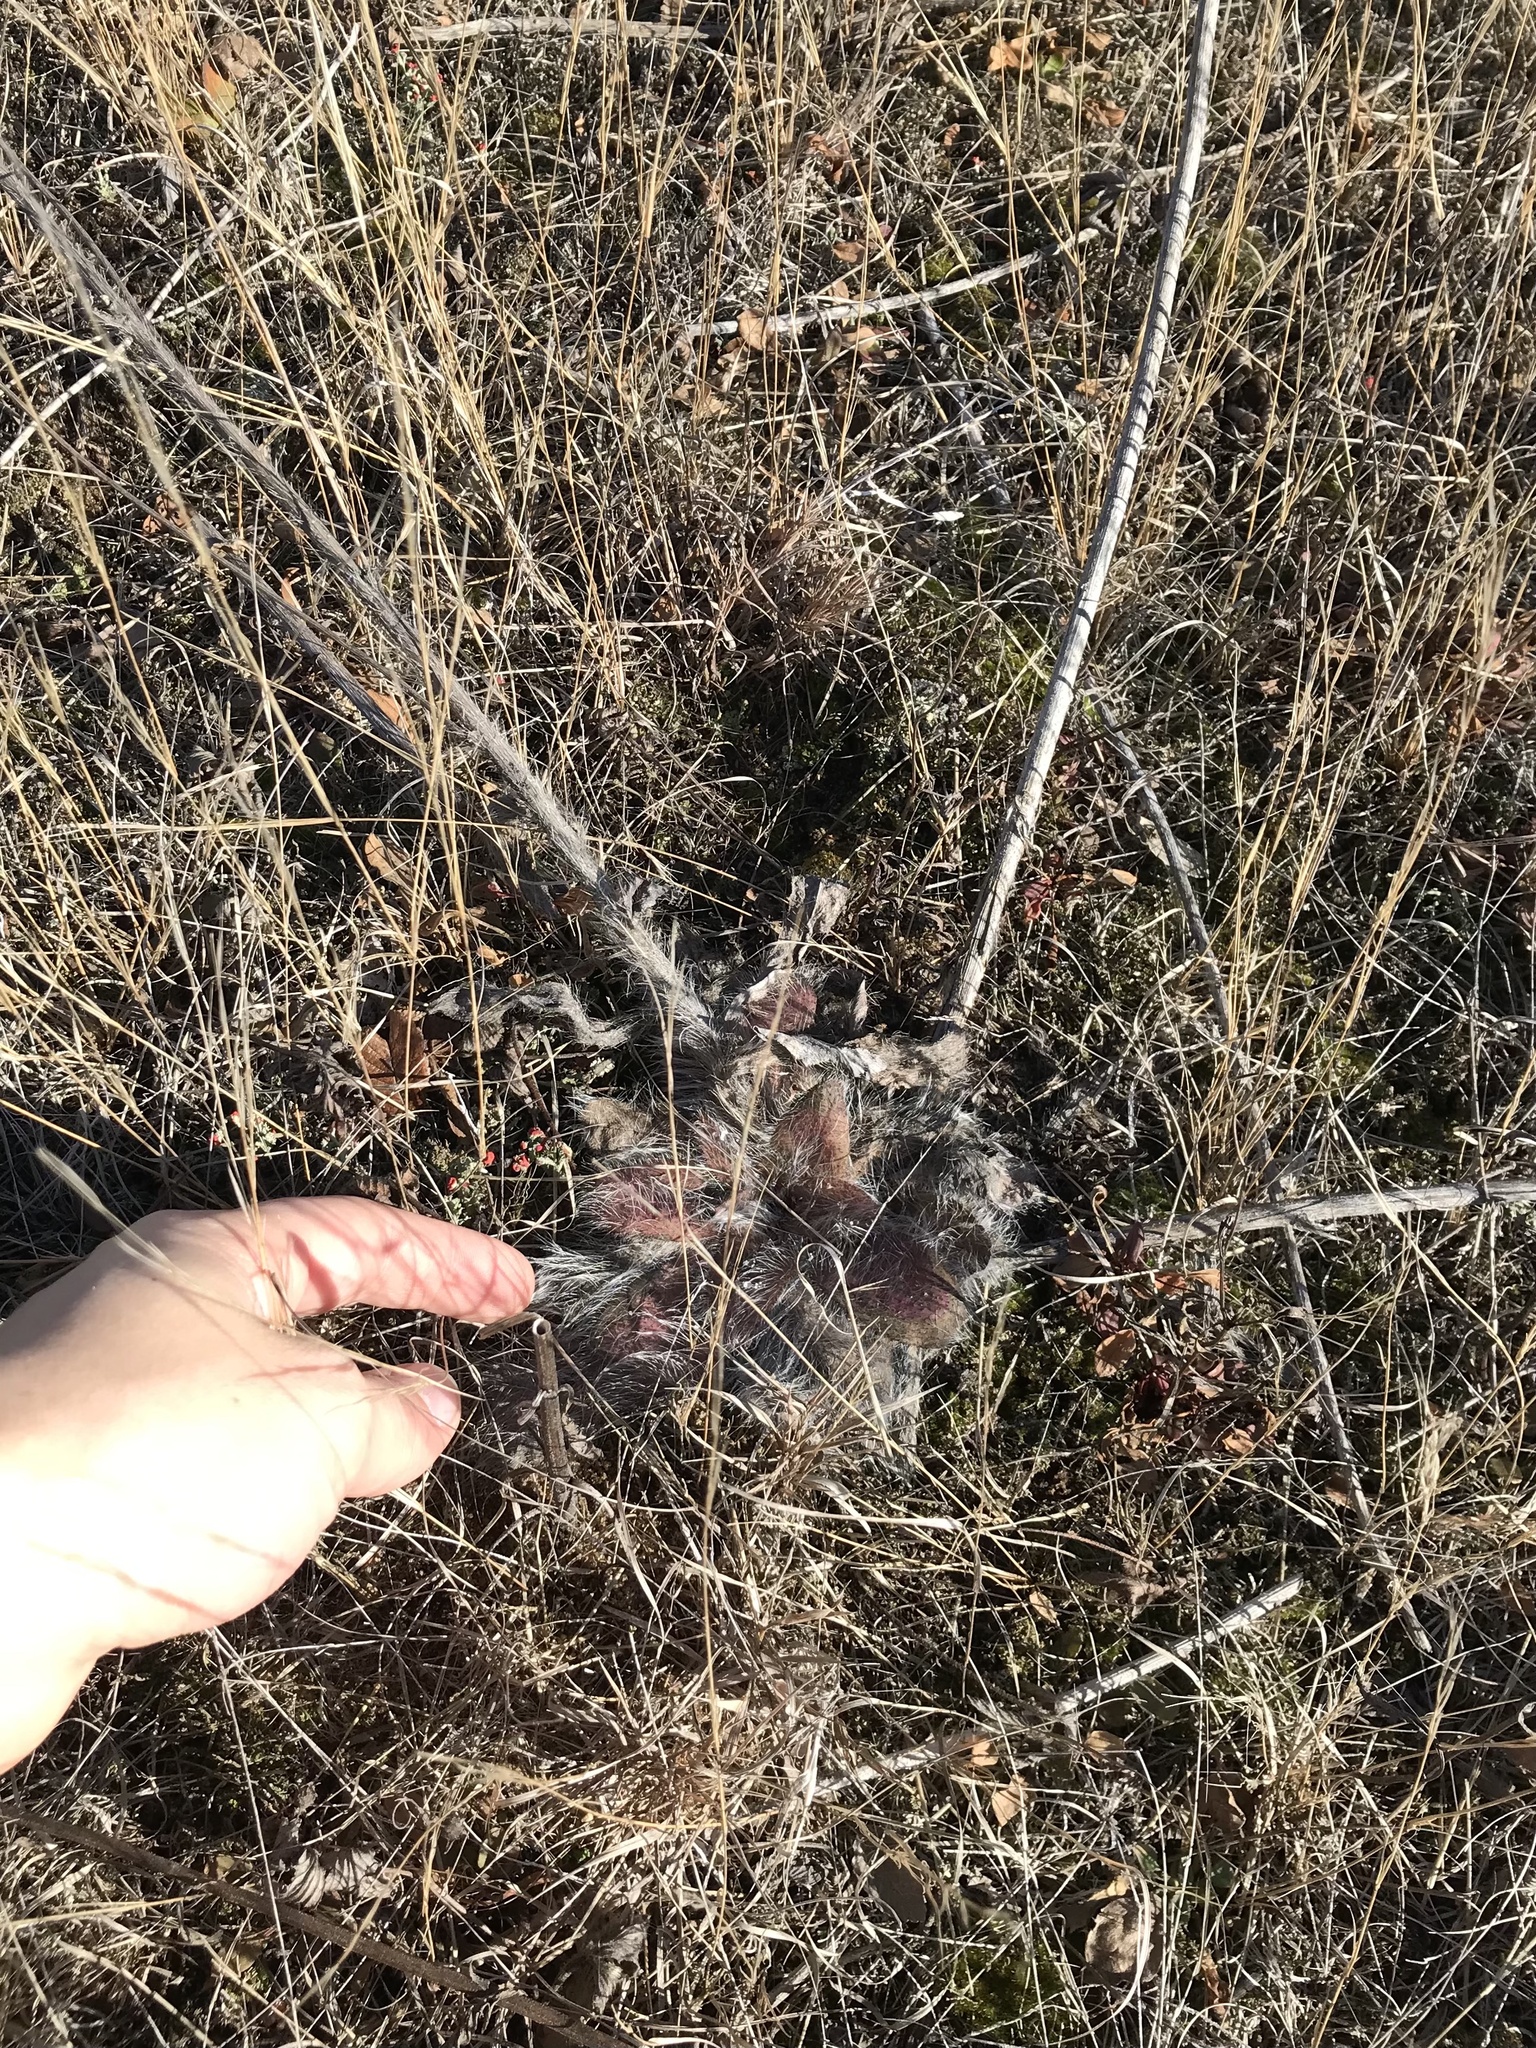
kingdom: Plantae
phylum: Tracheophyta
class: Magnoliopsida
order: Asterales
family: Asteraceae
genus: Hieracium
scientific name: Hieracium longipilum
